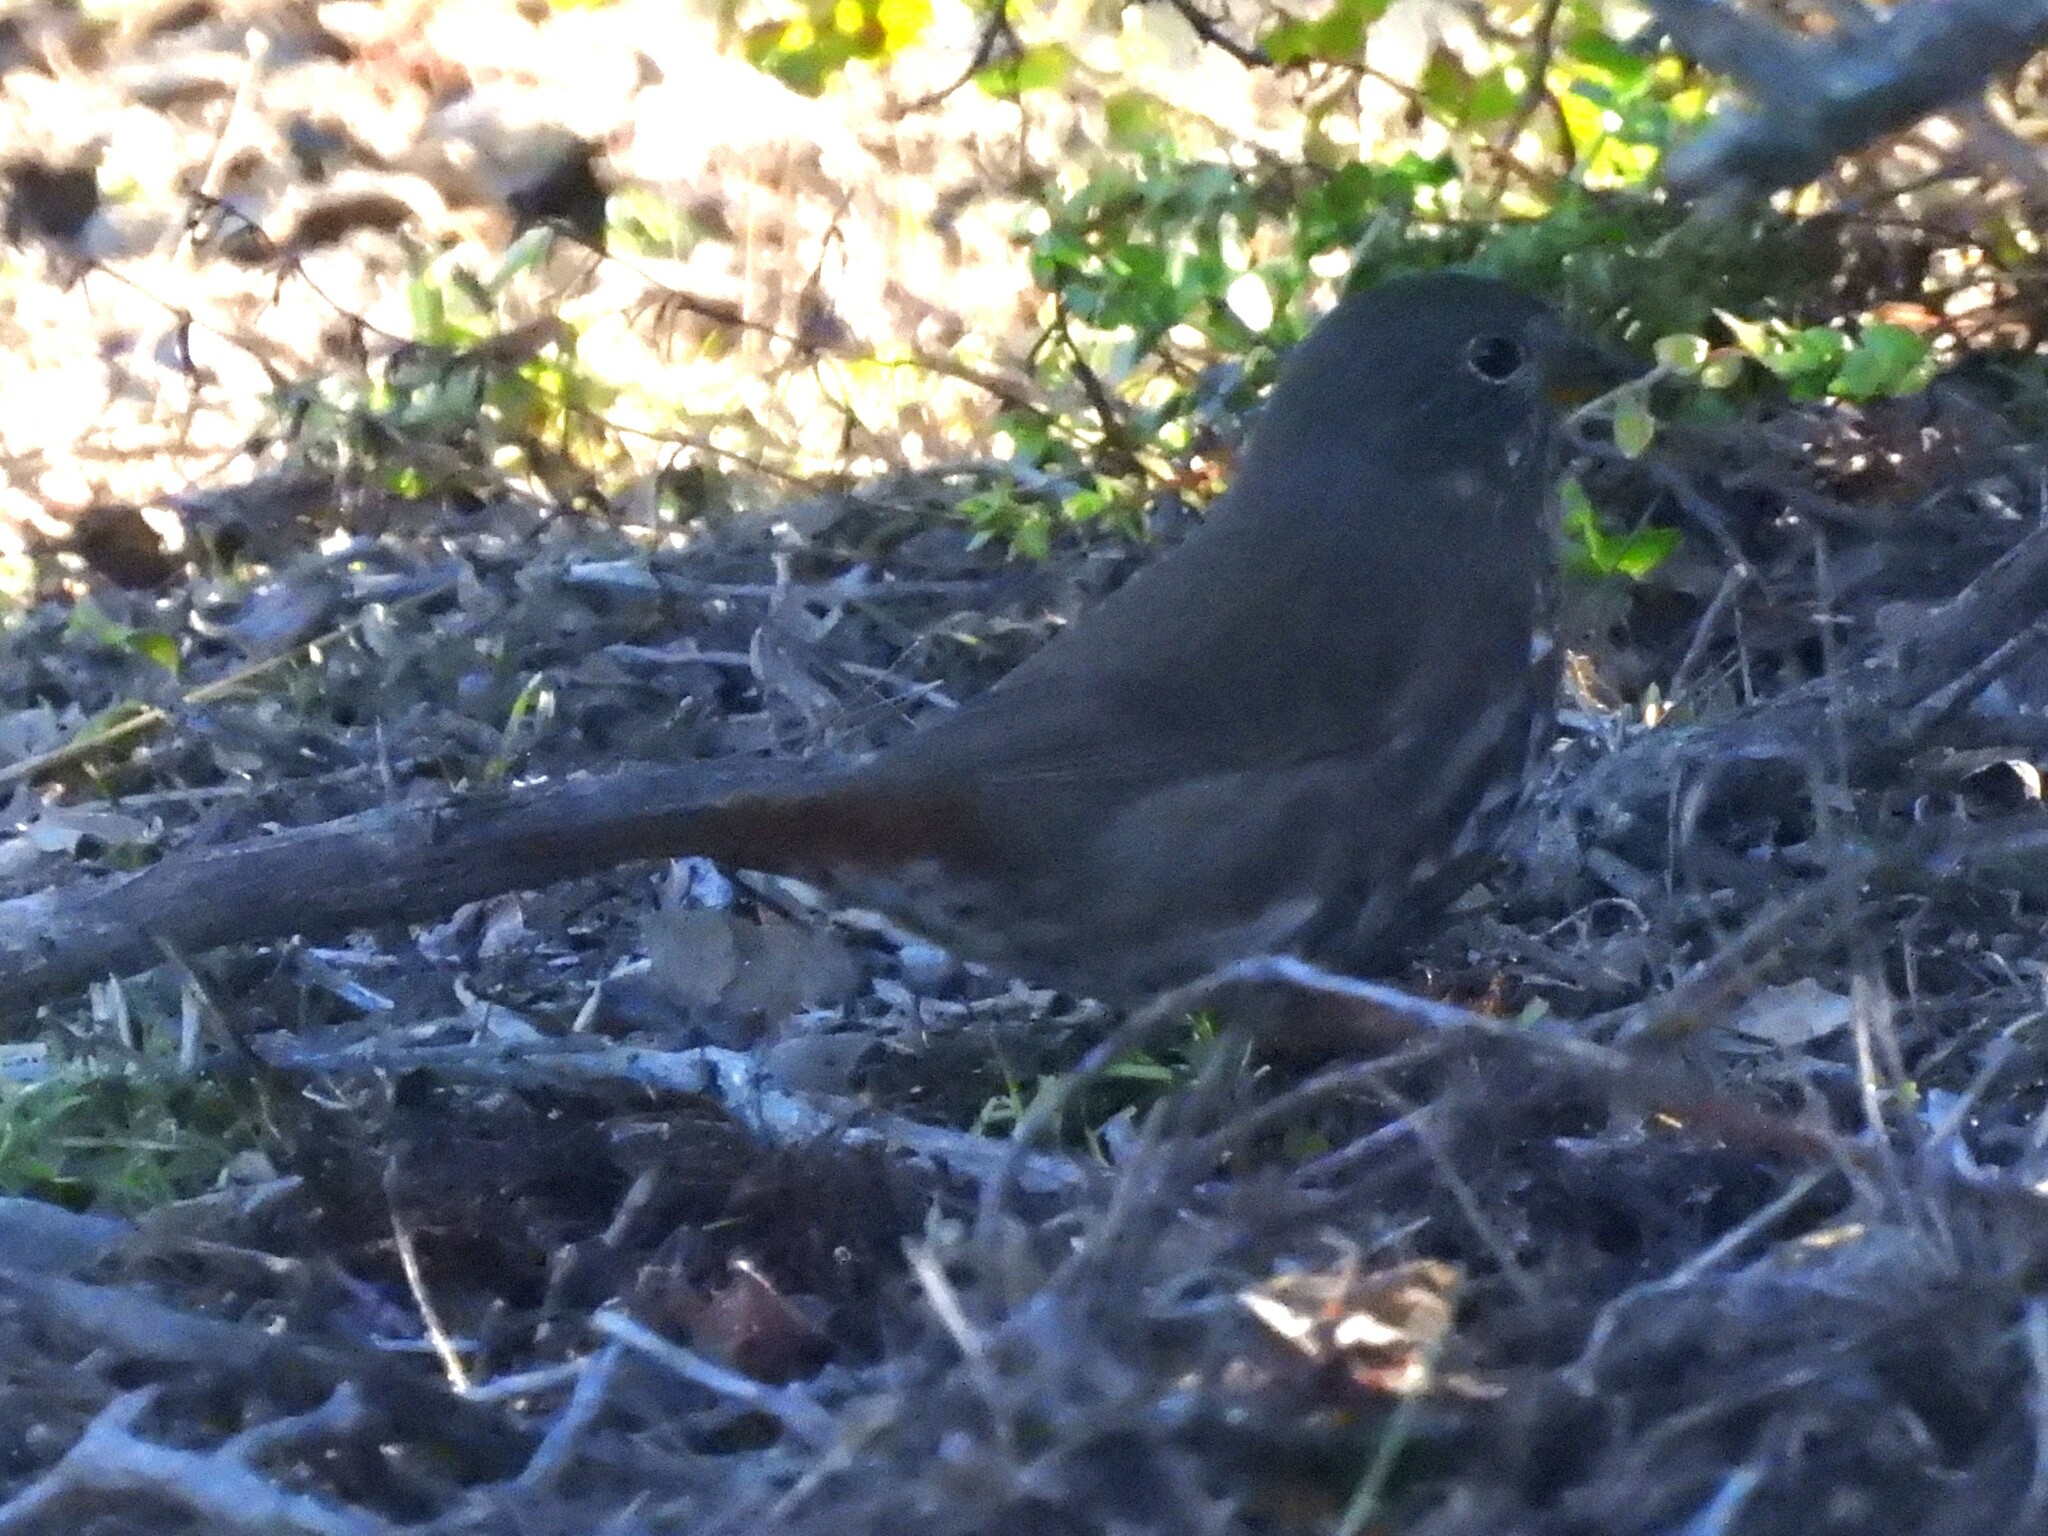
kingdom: Animalia
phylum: Chordata
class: Aves
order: Passeriformes
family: Passerellidae
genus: Passerella
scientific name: Passerella iliaca
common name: Fox sparrow
